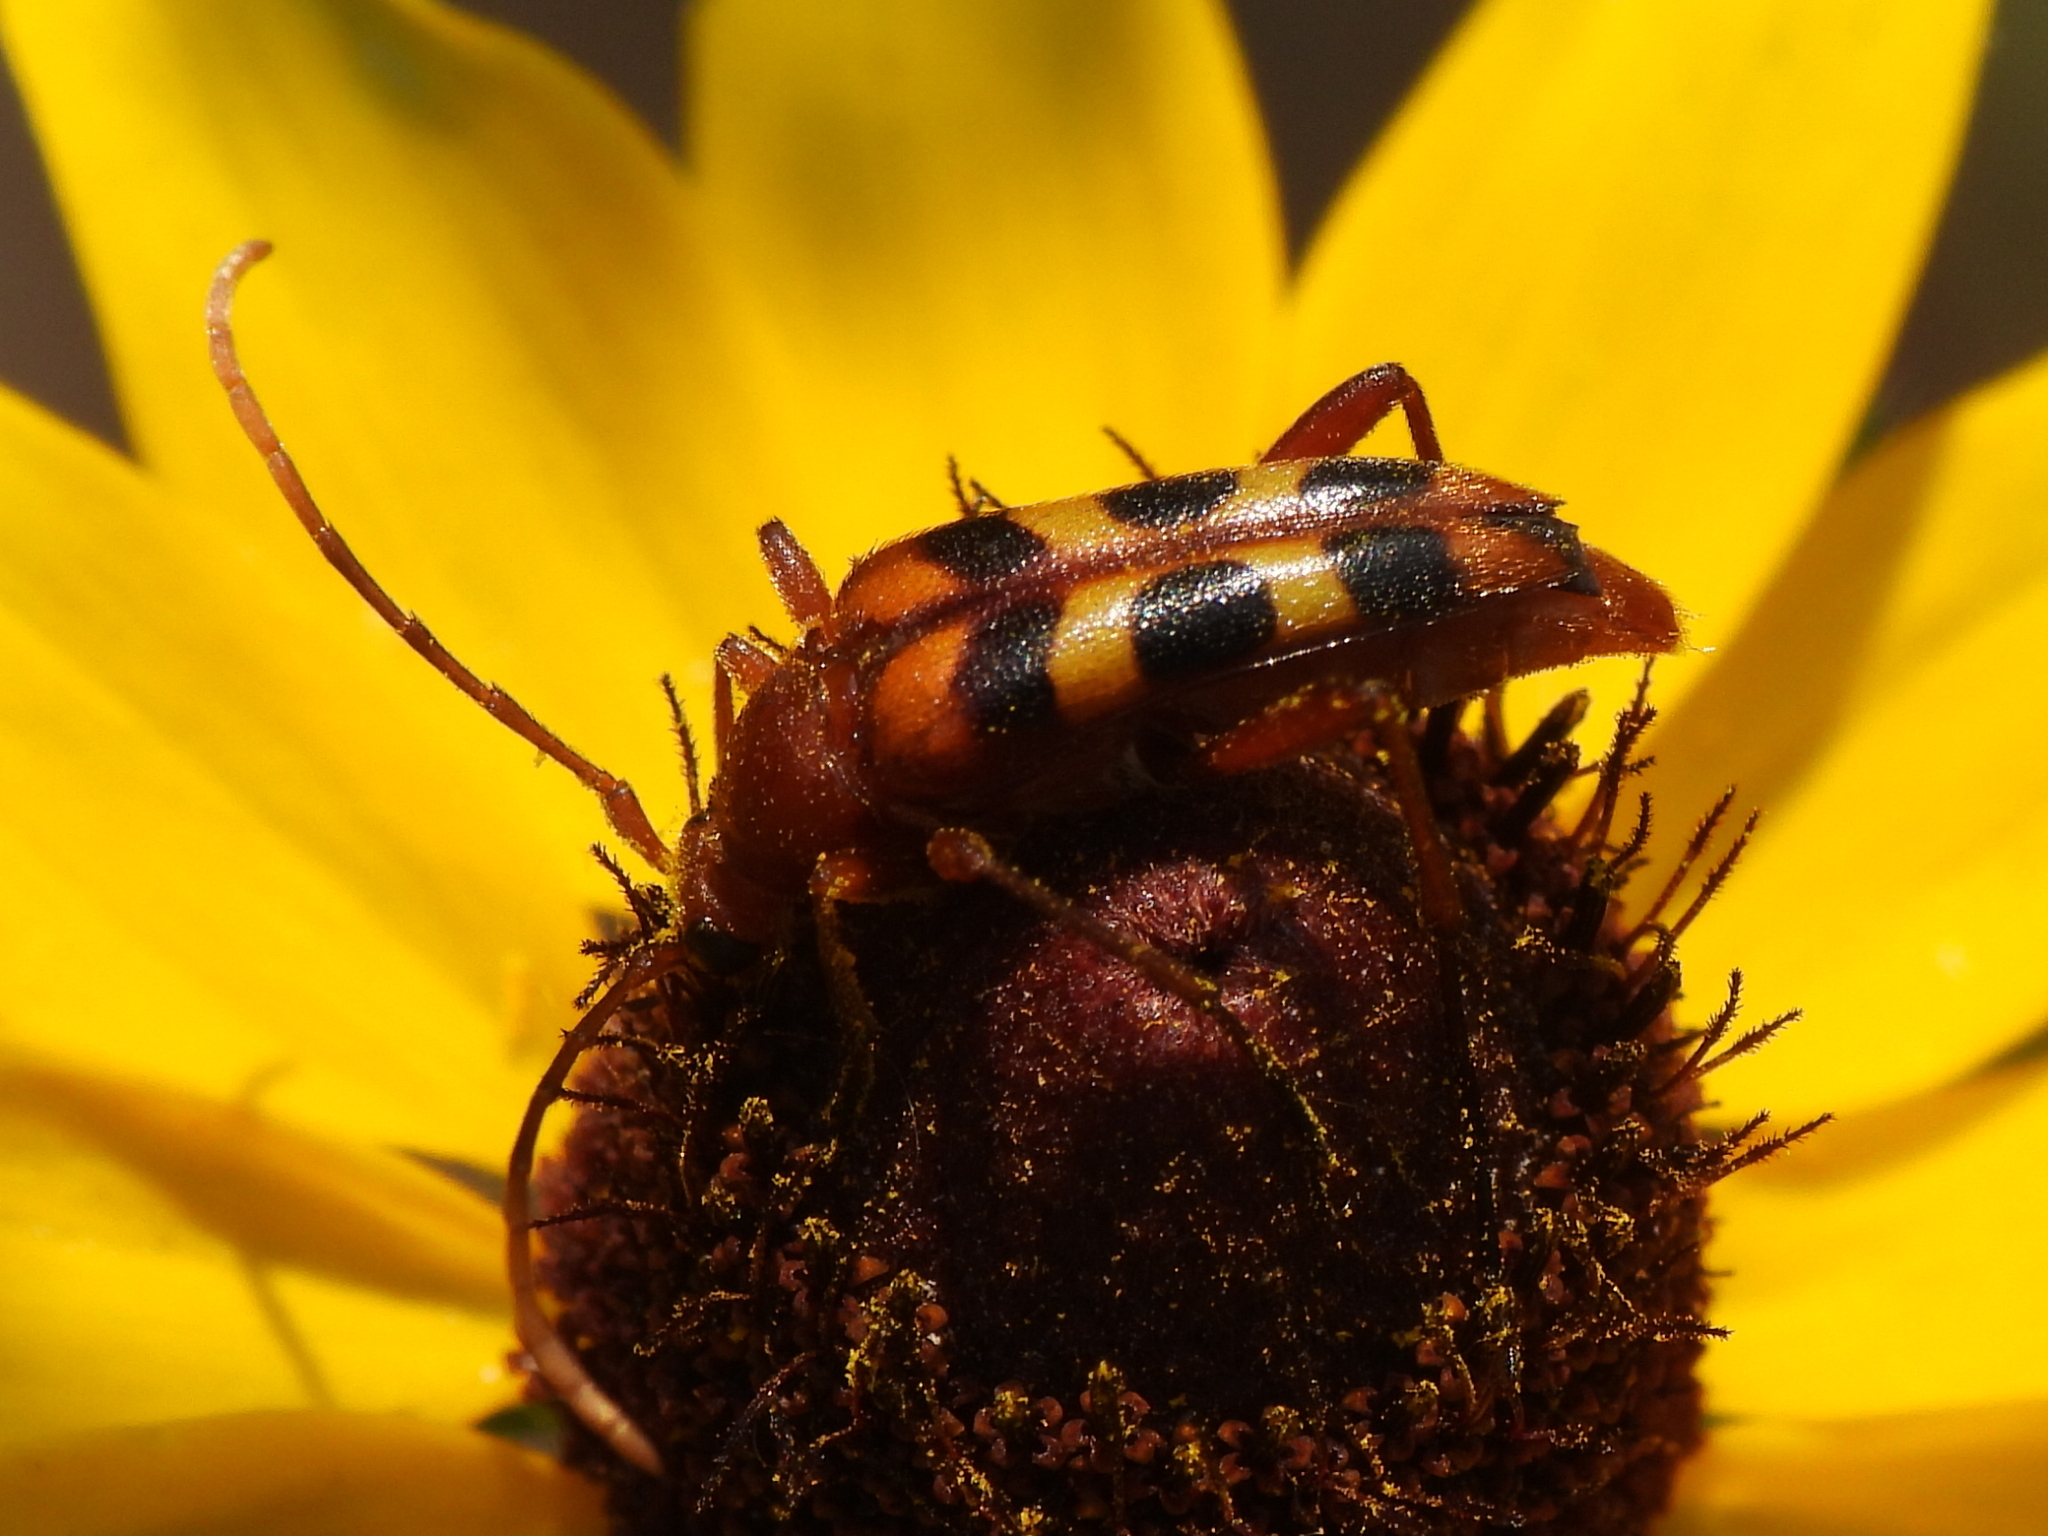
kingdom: Animalia
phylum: Arthropoda
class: Insecta
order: Coleoptera
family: Cerambycidae
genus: Strangalia
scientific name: Strangalia sexnotata
